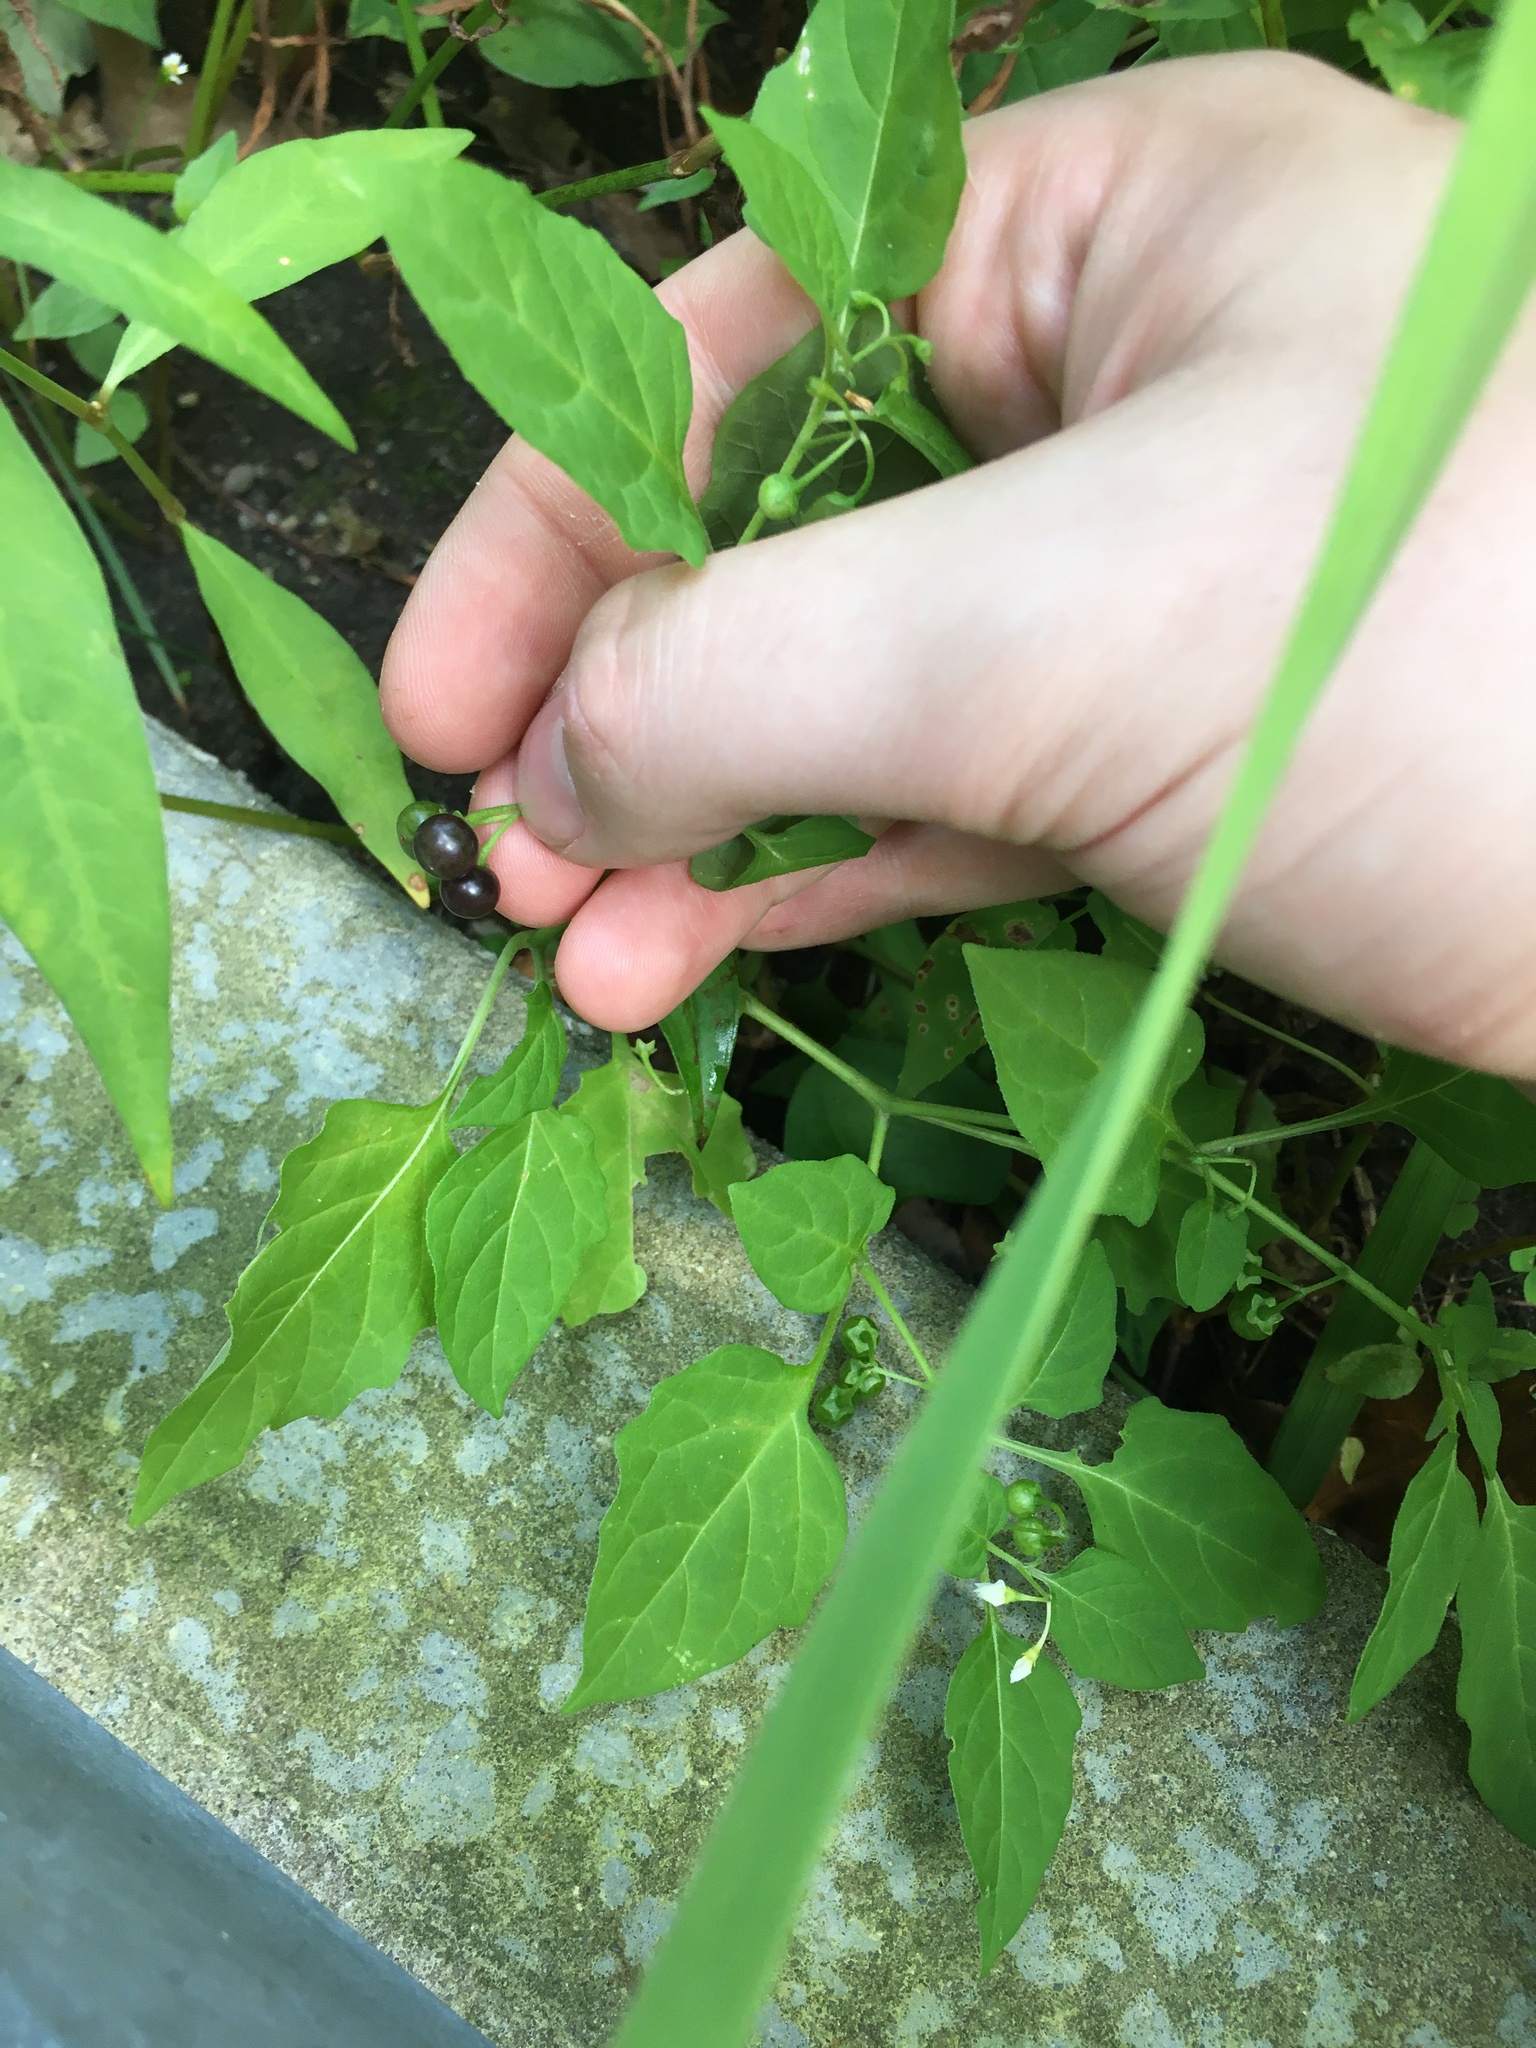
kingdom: Plantae
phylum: Tracheophyta
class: Magnoliopsida
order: Solanales
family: Solanaceae
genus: Solanum
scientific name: Solanum emulans
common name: Eastern black nightshade
